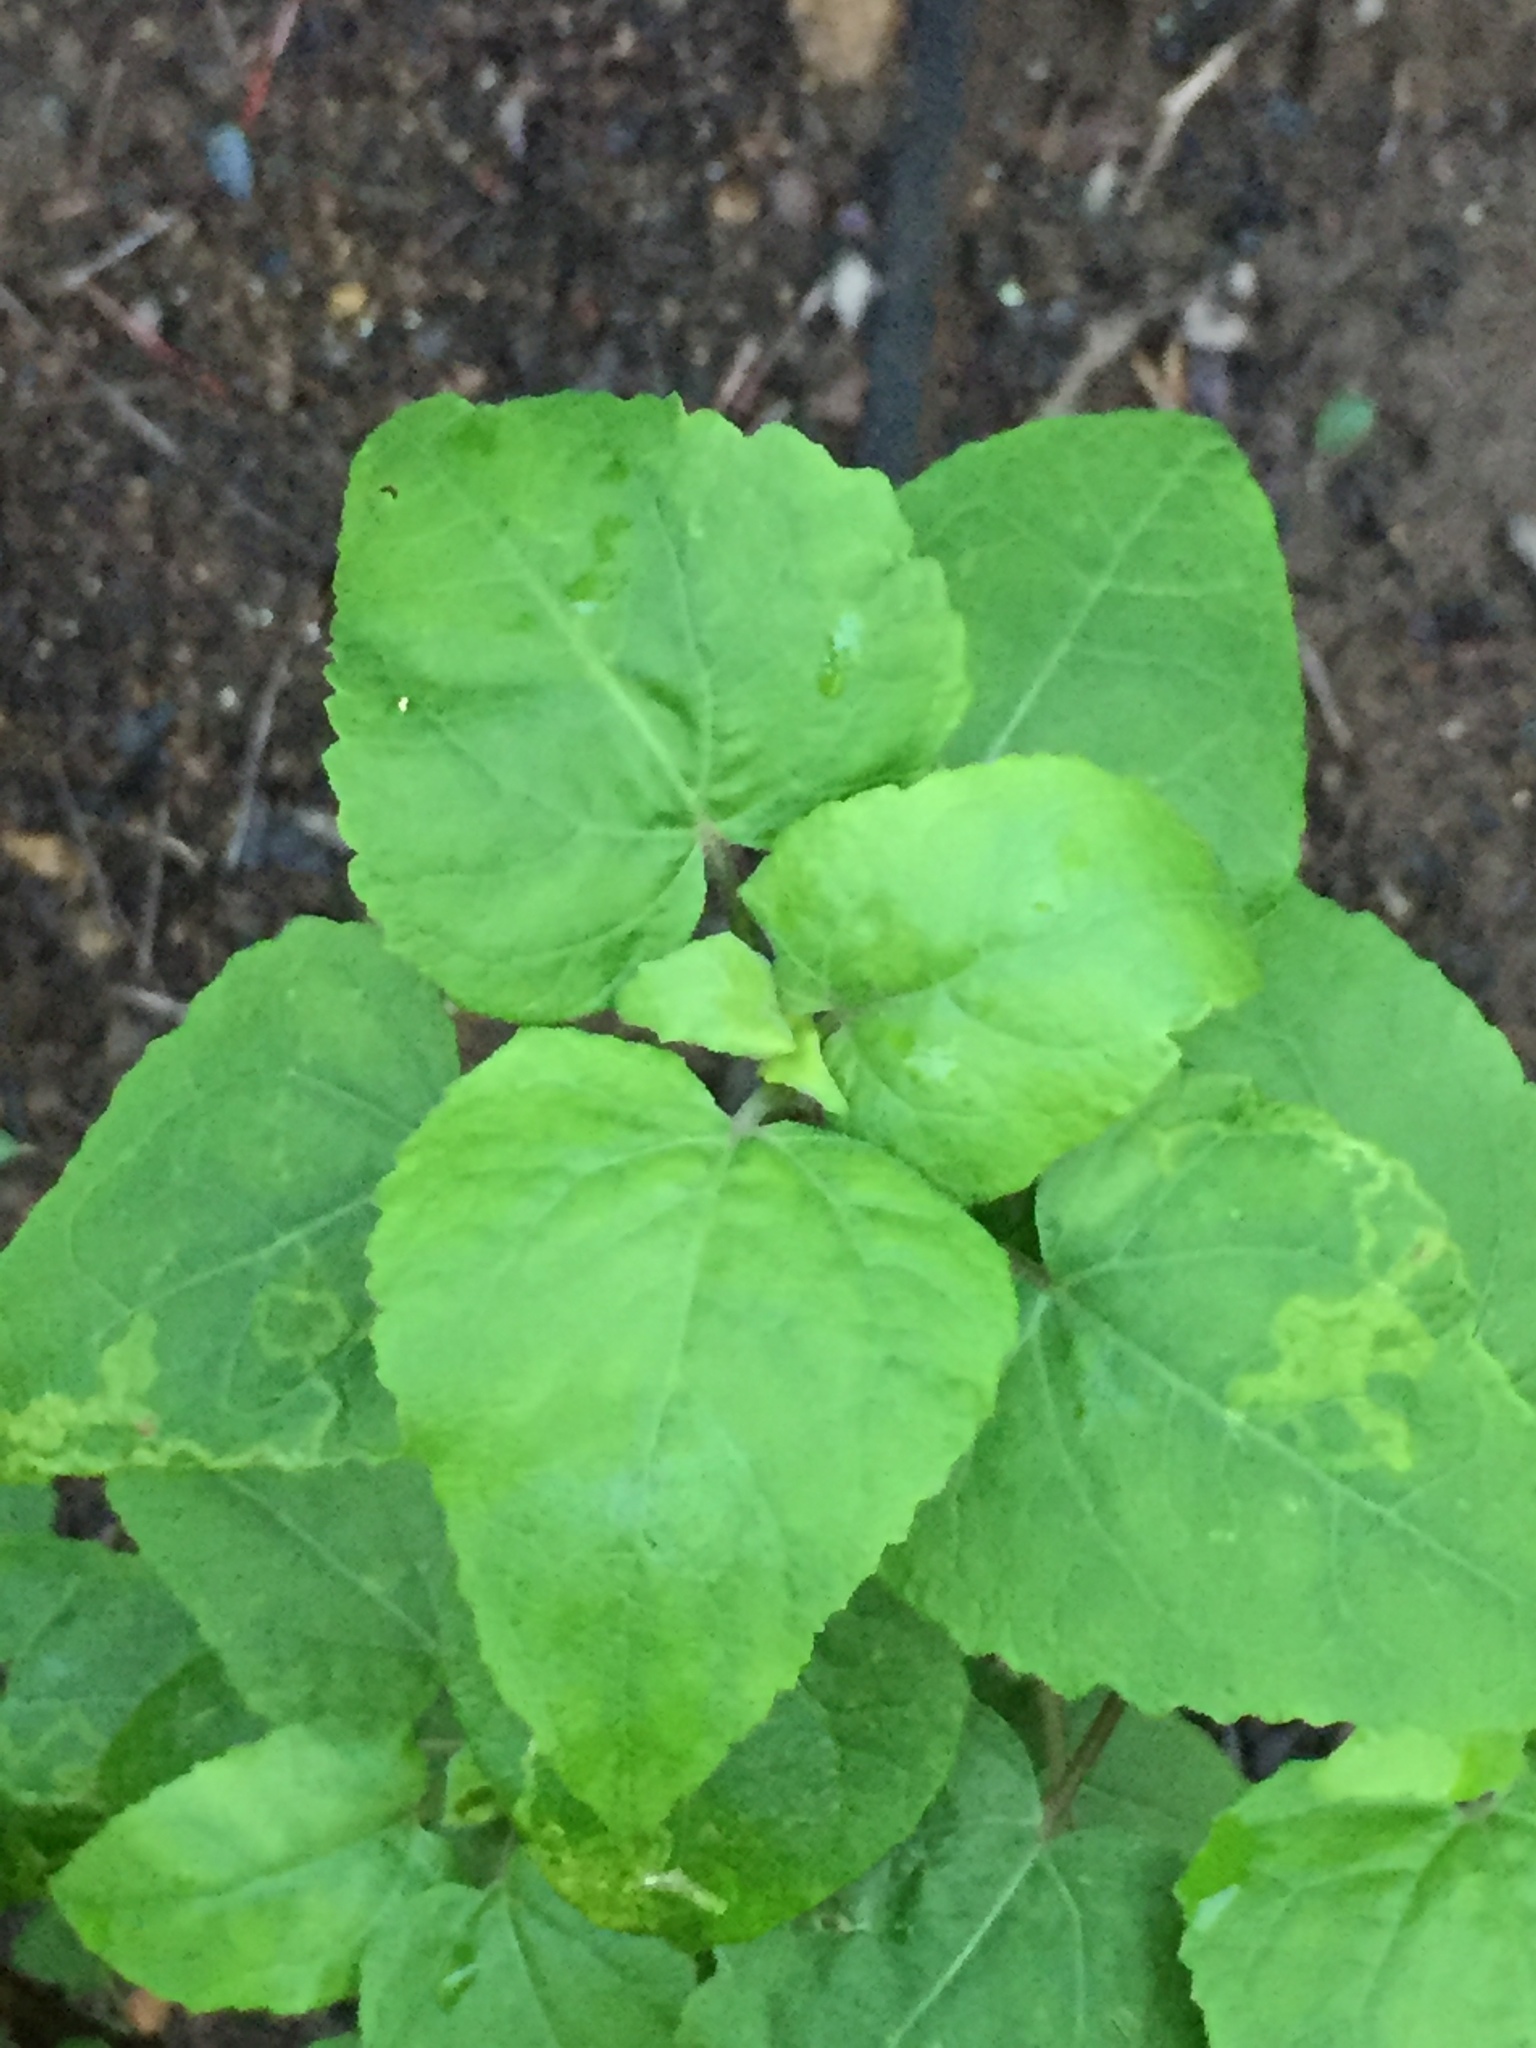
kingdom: Plantae
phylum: Tracheophyta
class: Magnoliopsida
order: Asterales
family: Asteraceae
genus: Venegasia
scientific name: Venegasia carpesioides
